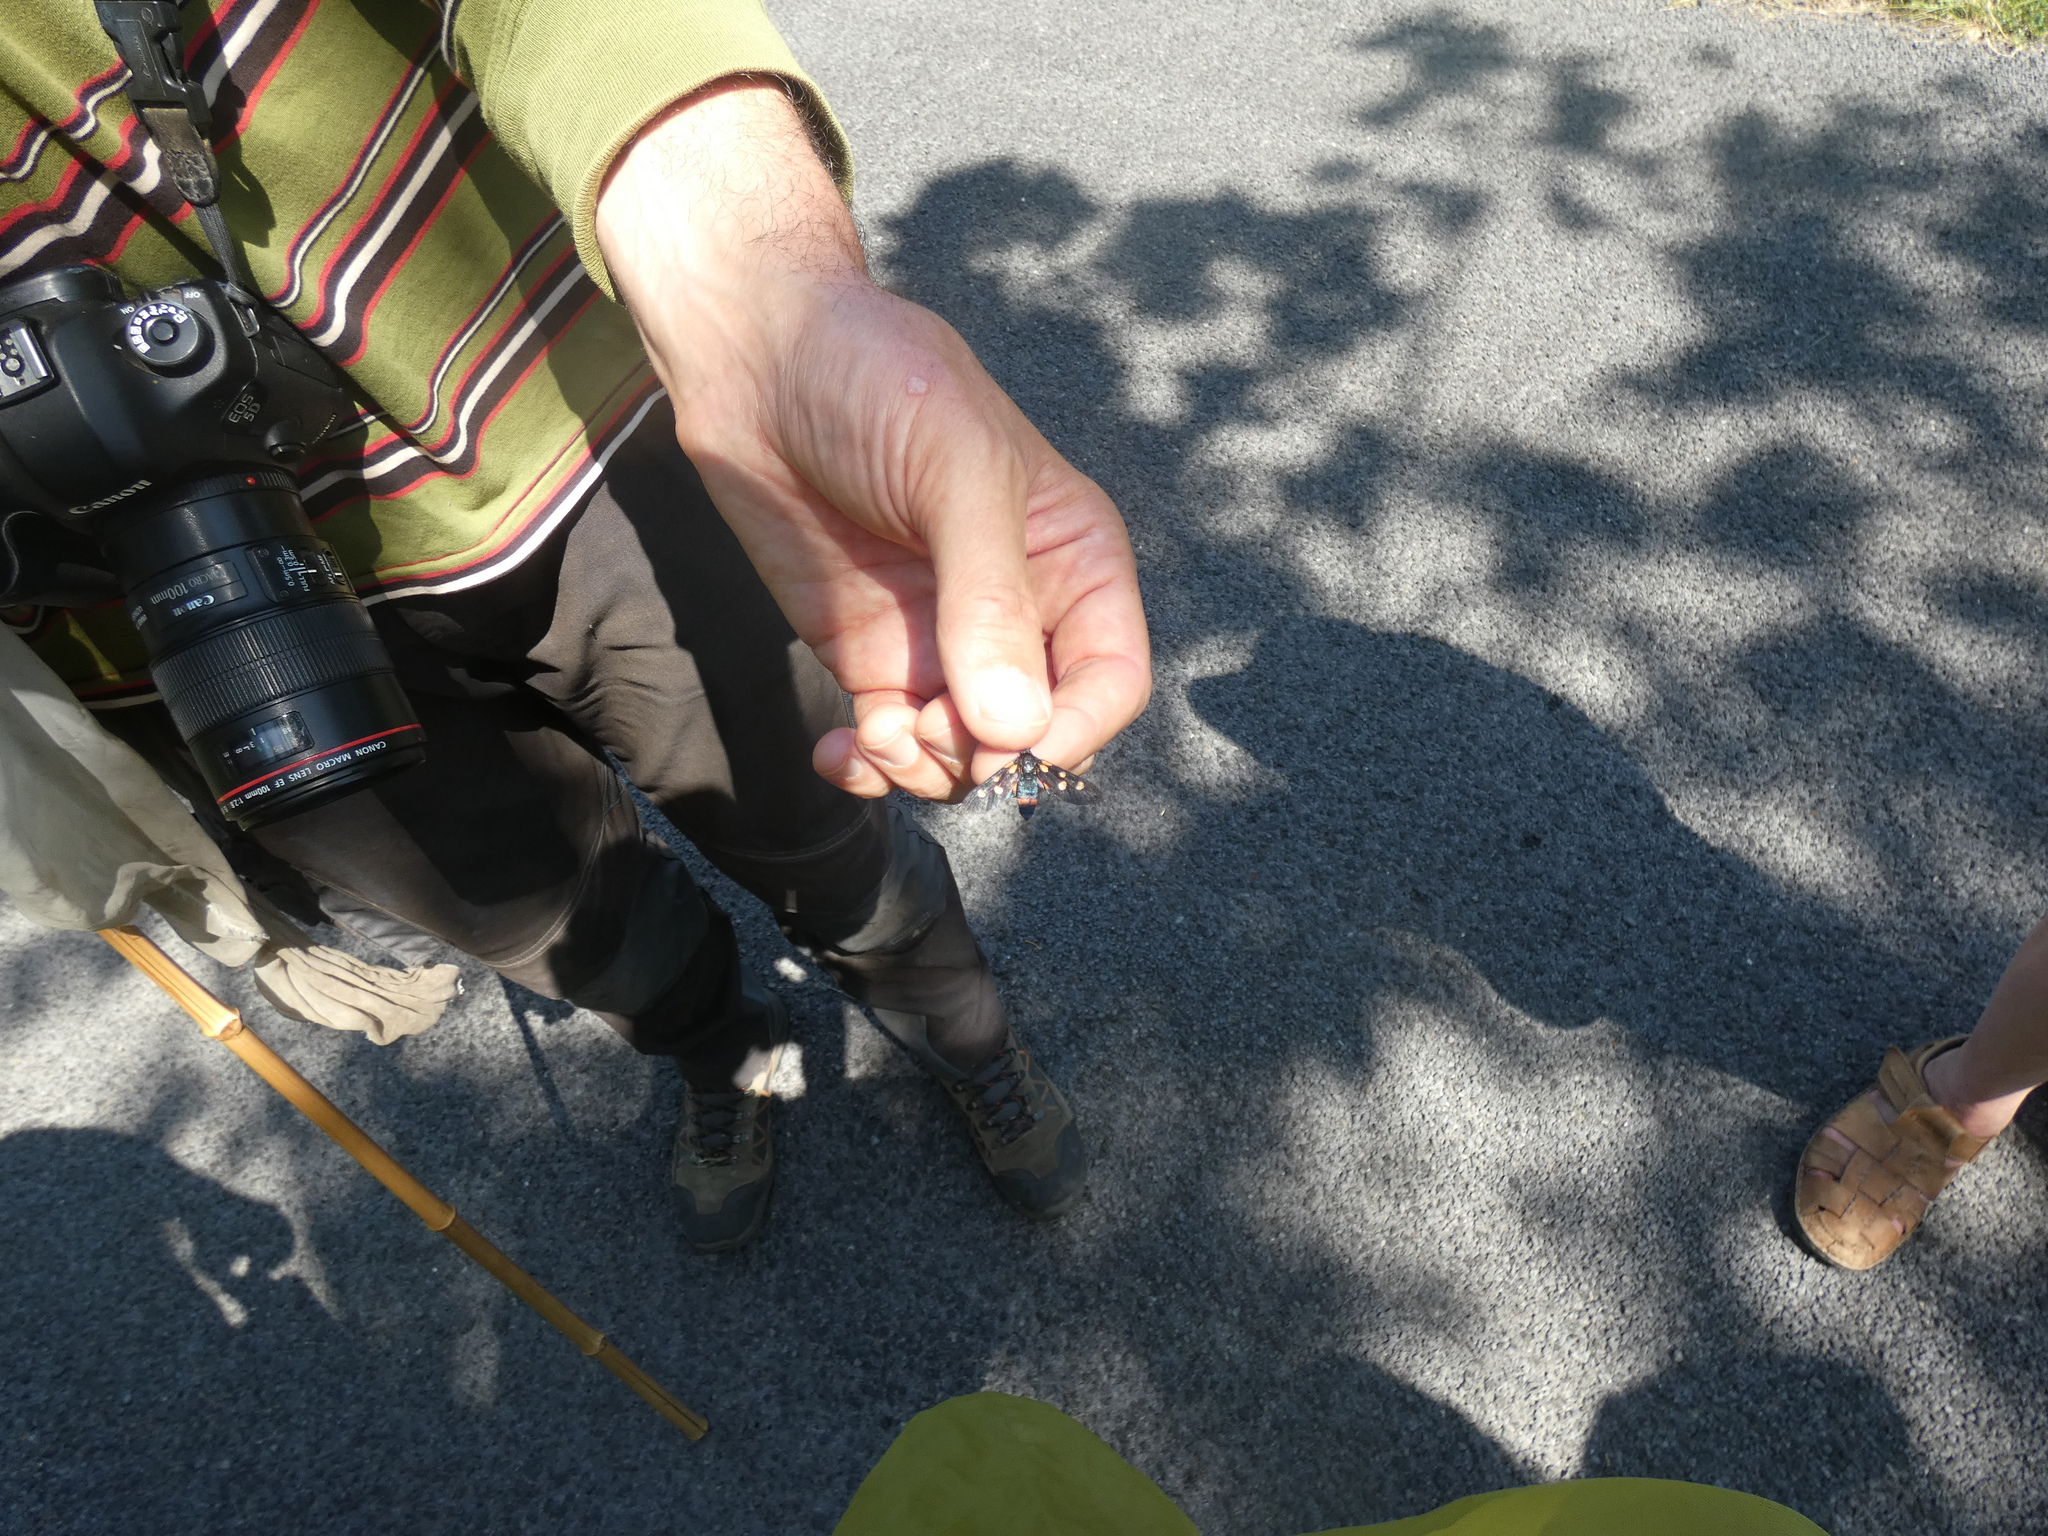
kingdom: Animalia
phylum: Arthropoda
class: Insecta
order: Lepidoptera
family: Zygaenidae
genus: Zygaena
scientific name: Zygaena ephialtes
